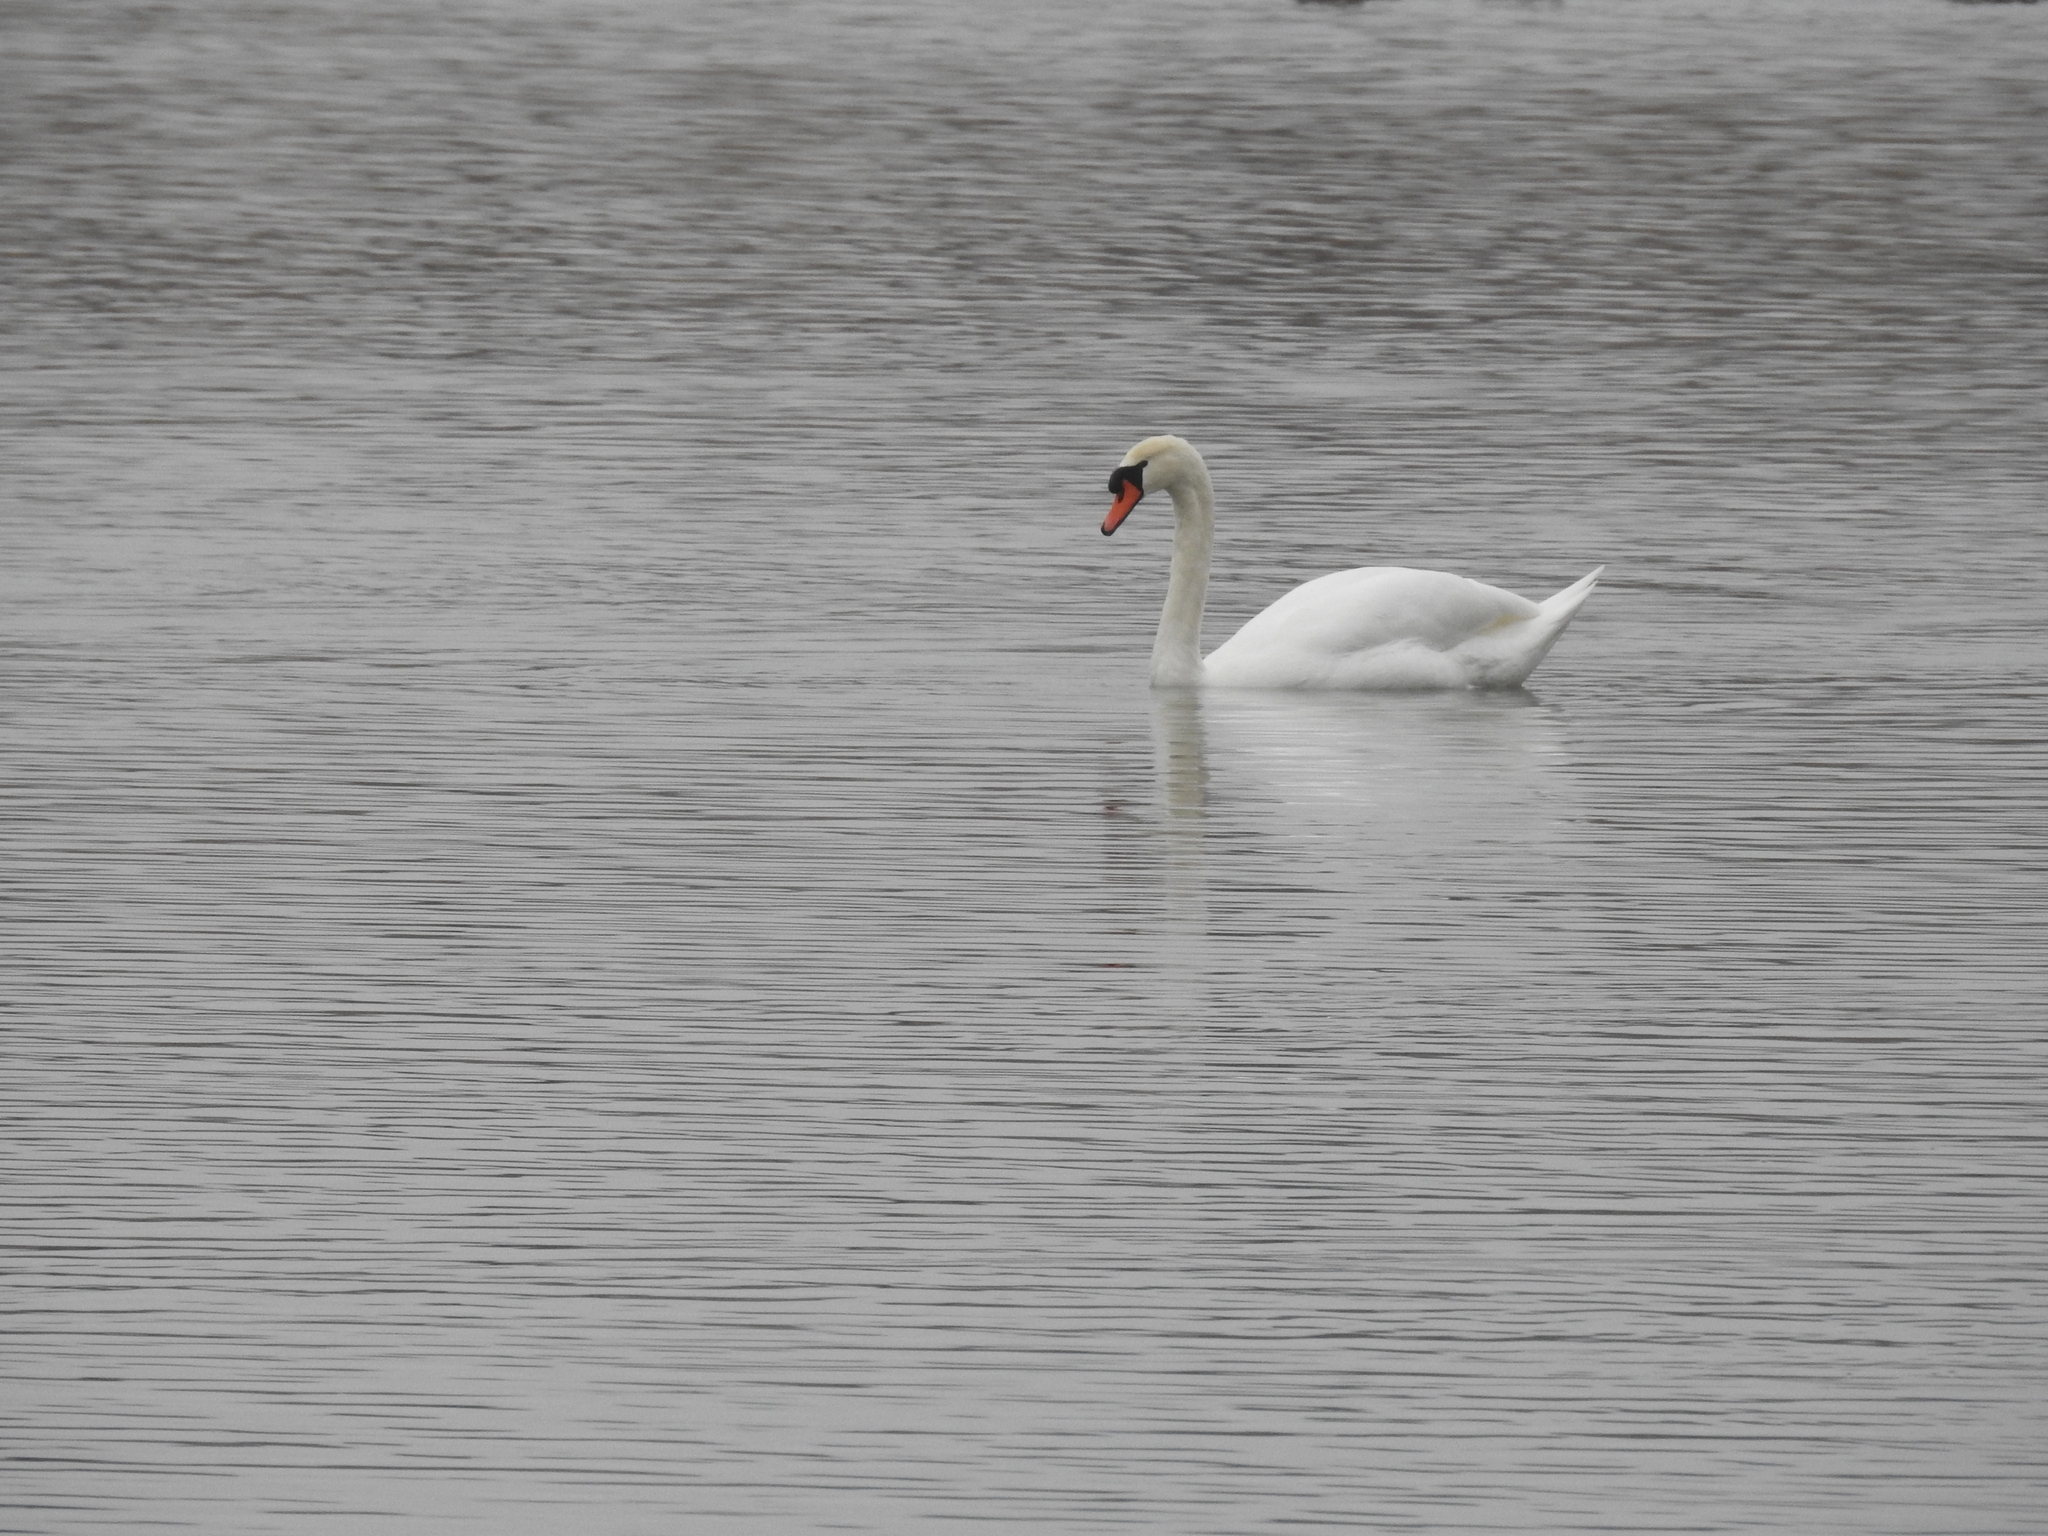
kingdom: Animalia
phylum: Chordata
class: Aves
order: Anseriformes
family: Anatidae
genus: Cygnus
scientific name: Cygnus olor
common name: Mute swan
